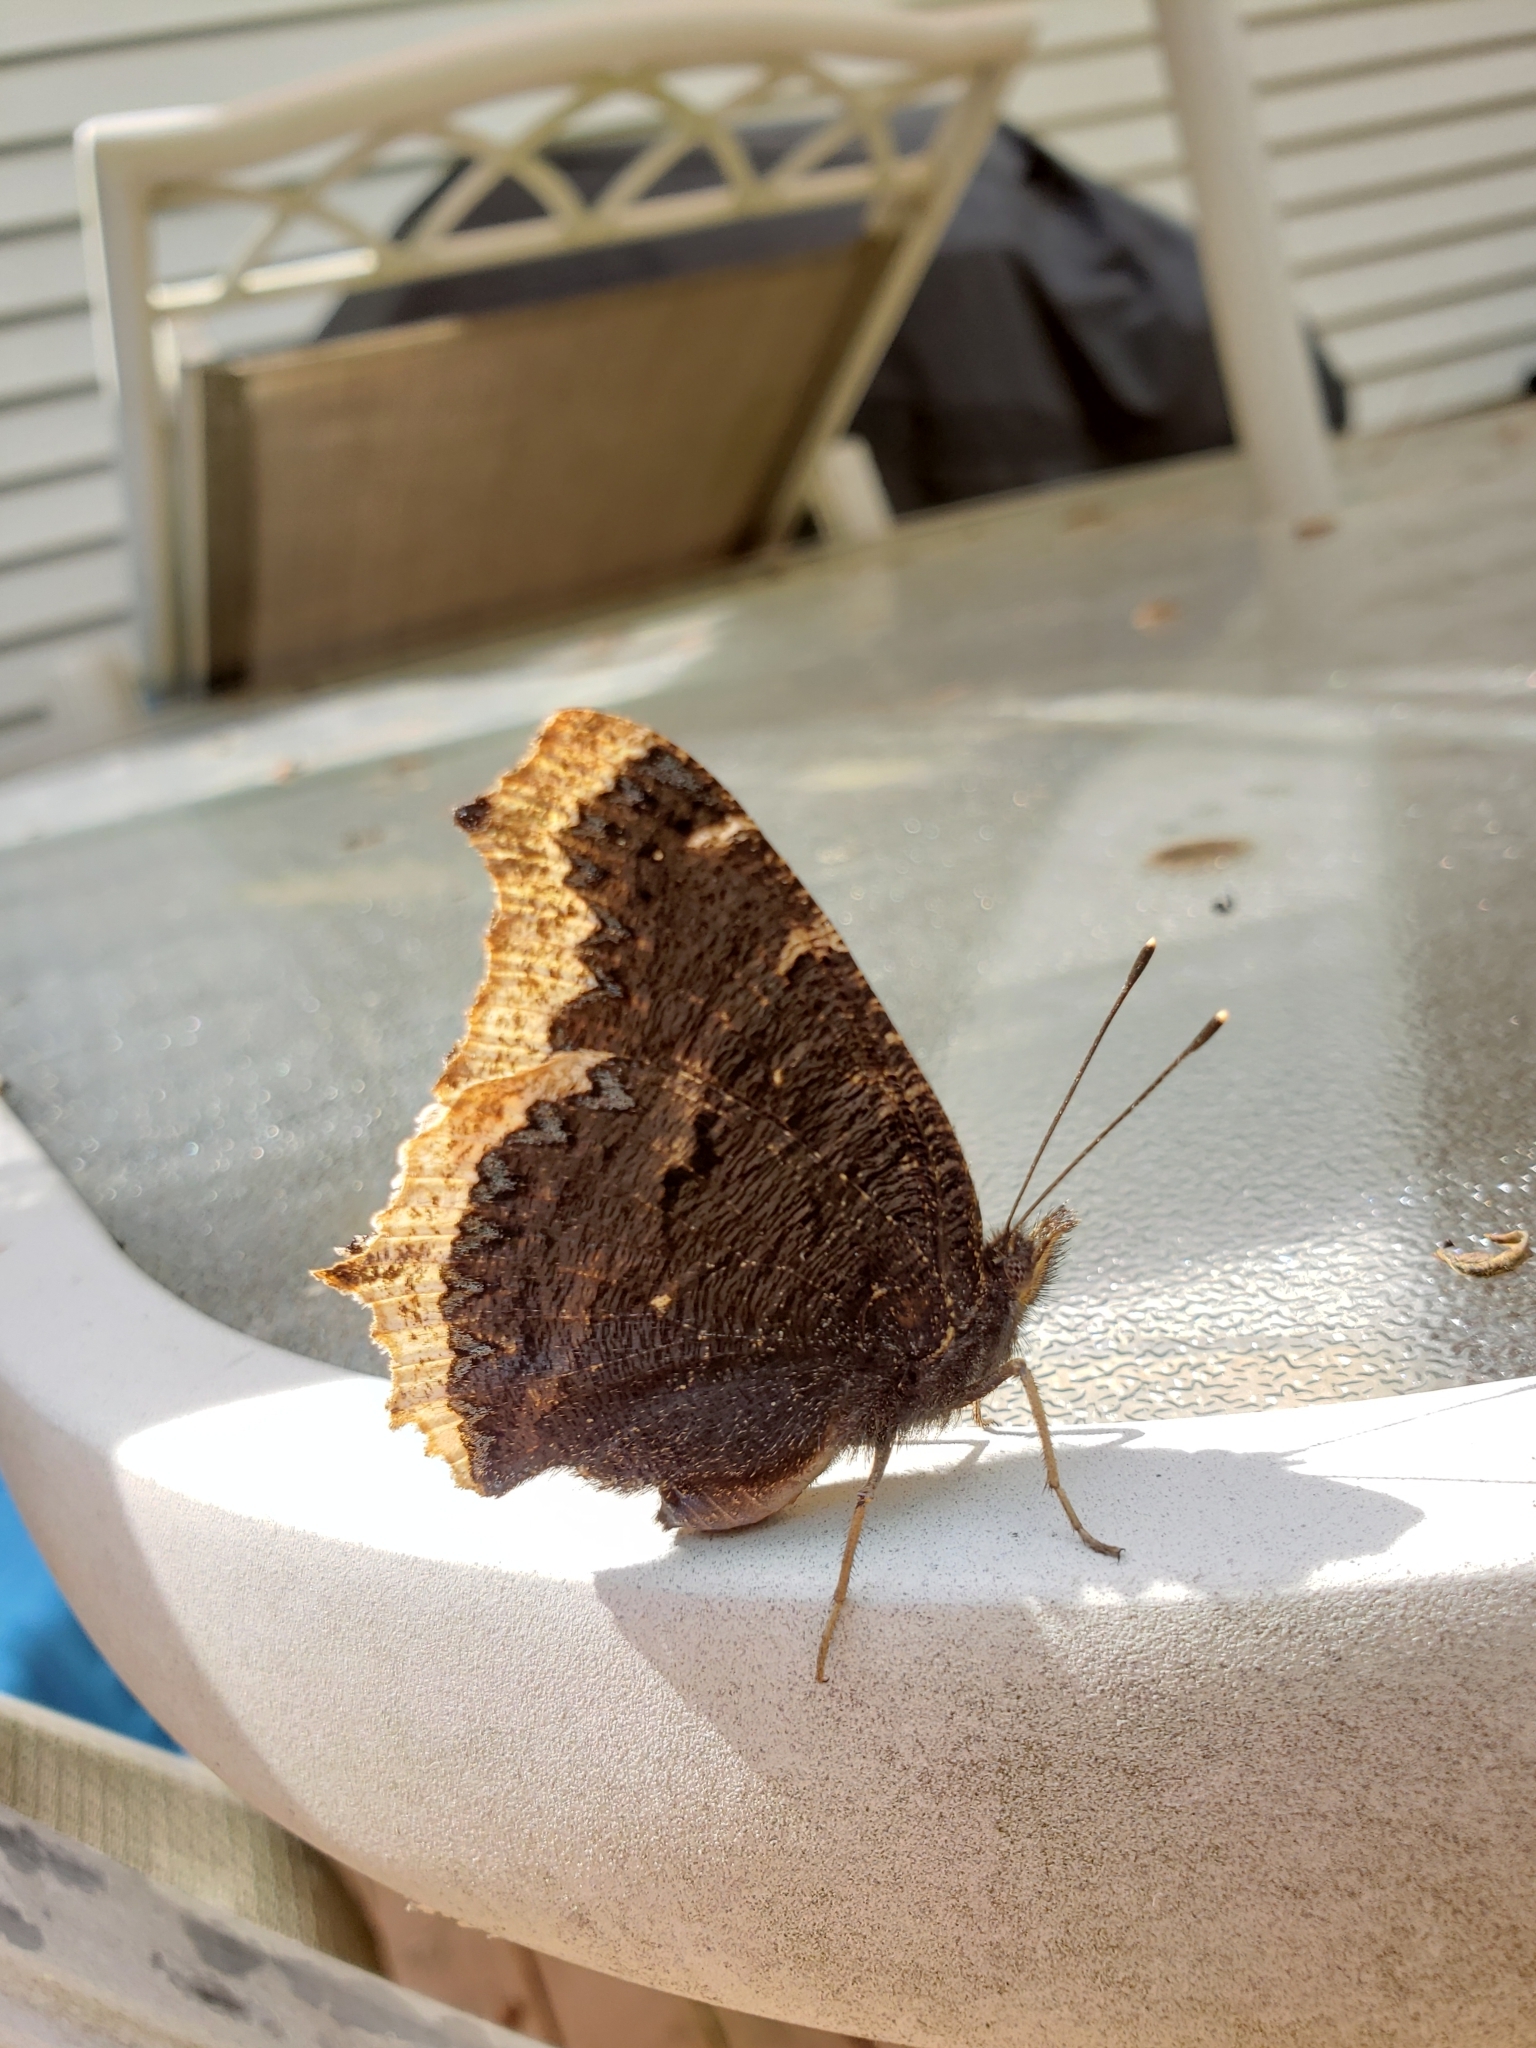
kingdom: Animalia
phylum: Arthropoda
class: Insecta
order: Lepidoptera
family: Nymphalidae
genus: Nymphalis
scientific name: Nymphalis antiopa
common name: Camberwell beauty
